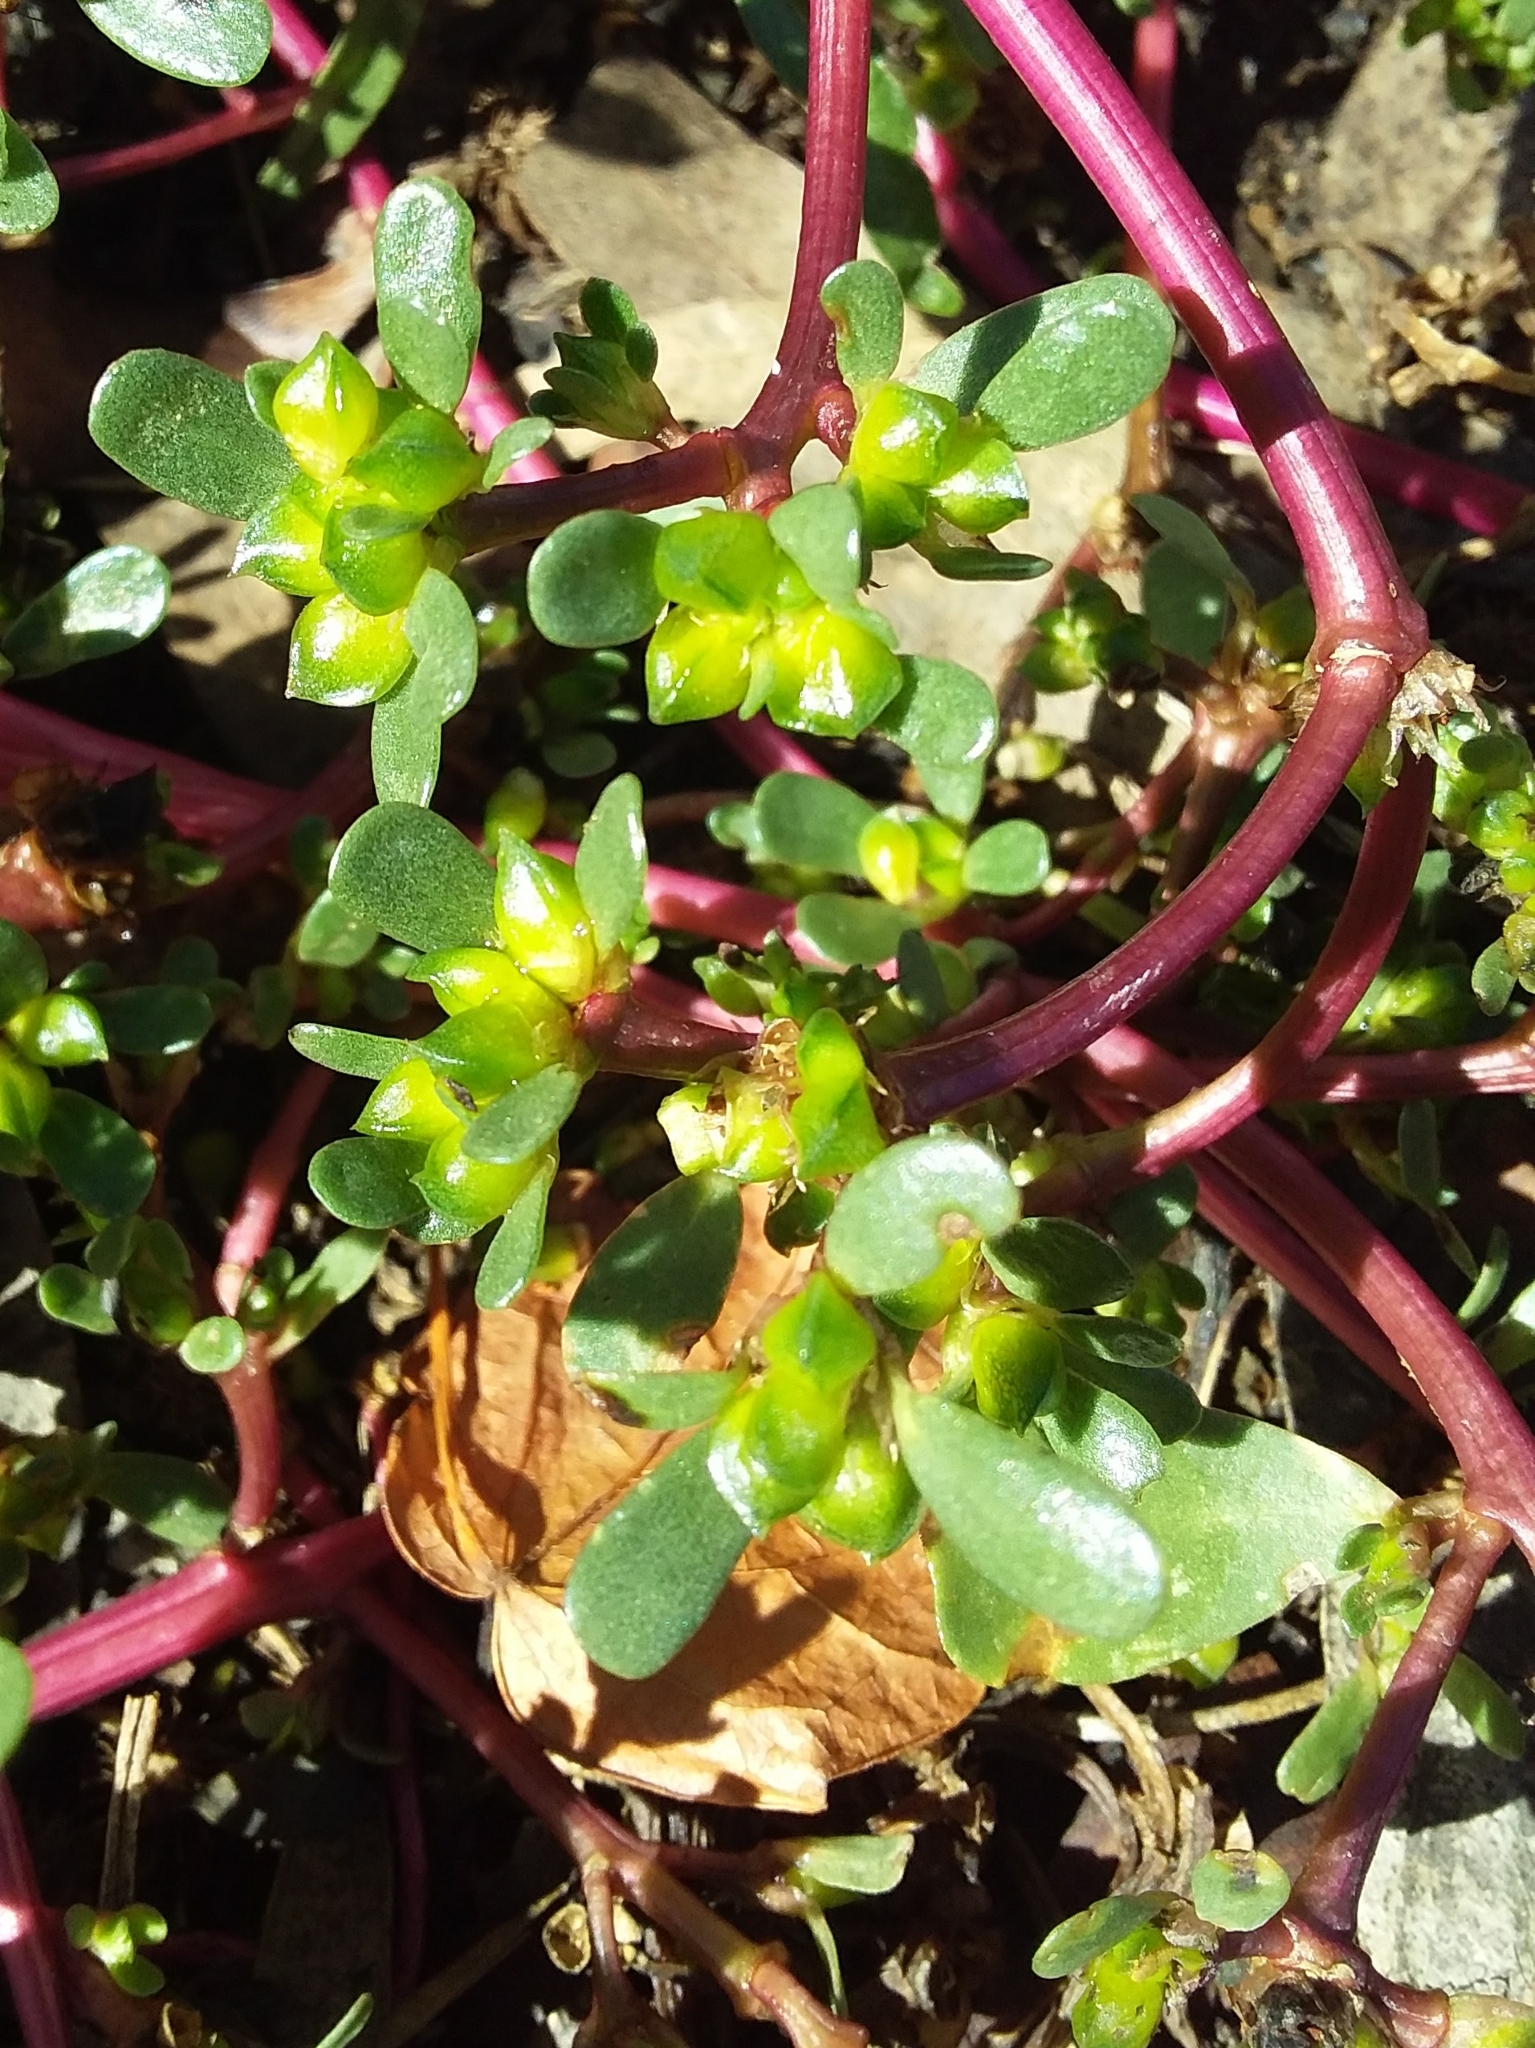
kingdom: Plantae
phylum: Tracheophyta
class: Magnoliopsida
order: Caryophyllales
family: Portulacaceae
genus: Portulaca
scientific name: Portulaca oleracea
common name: Common purslane
